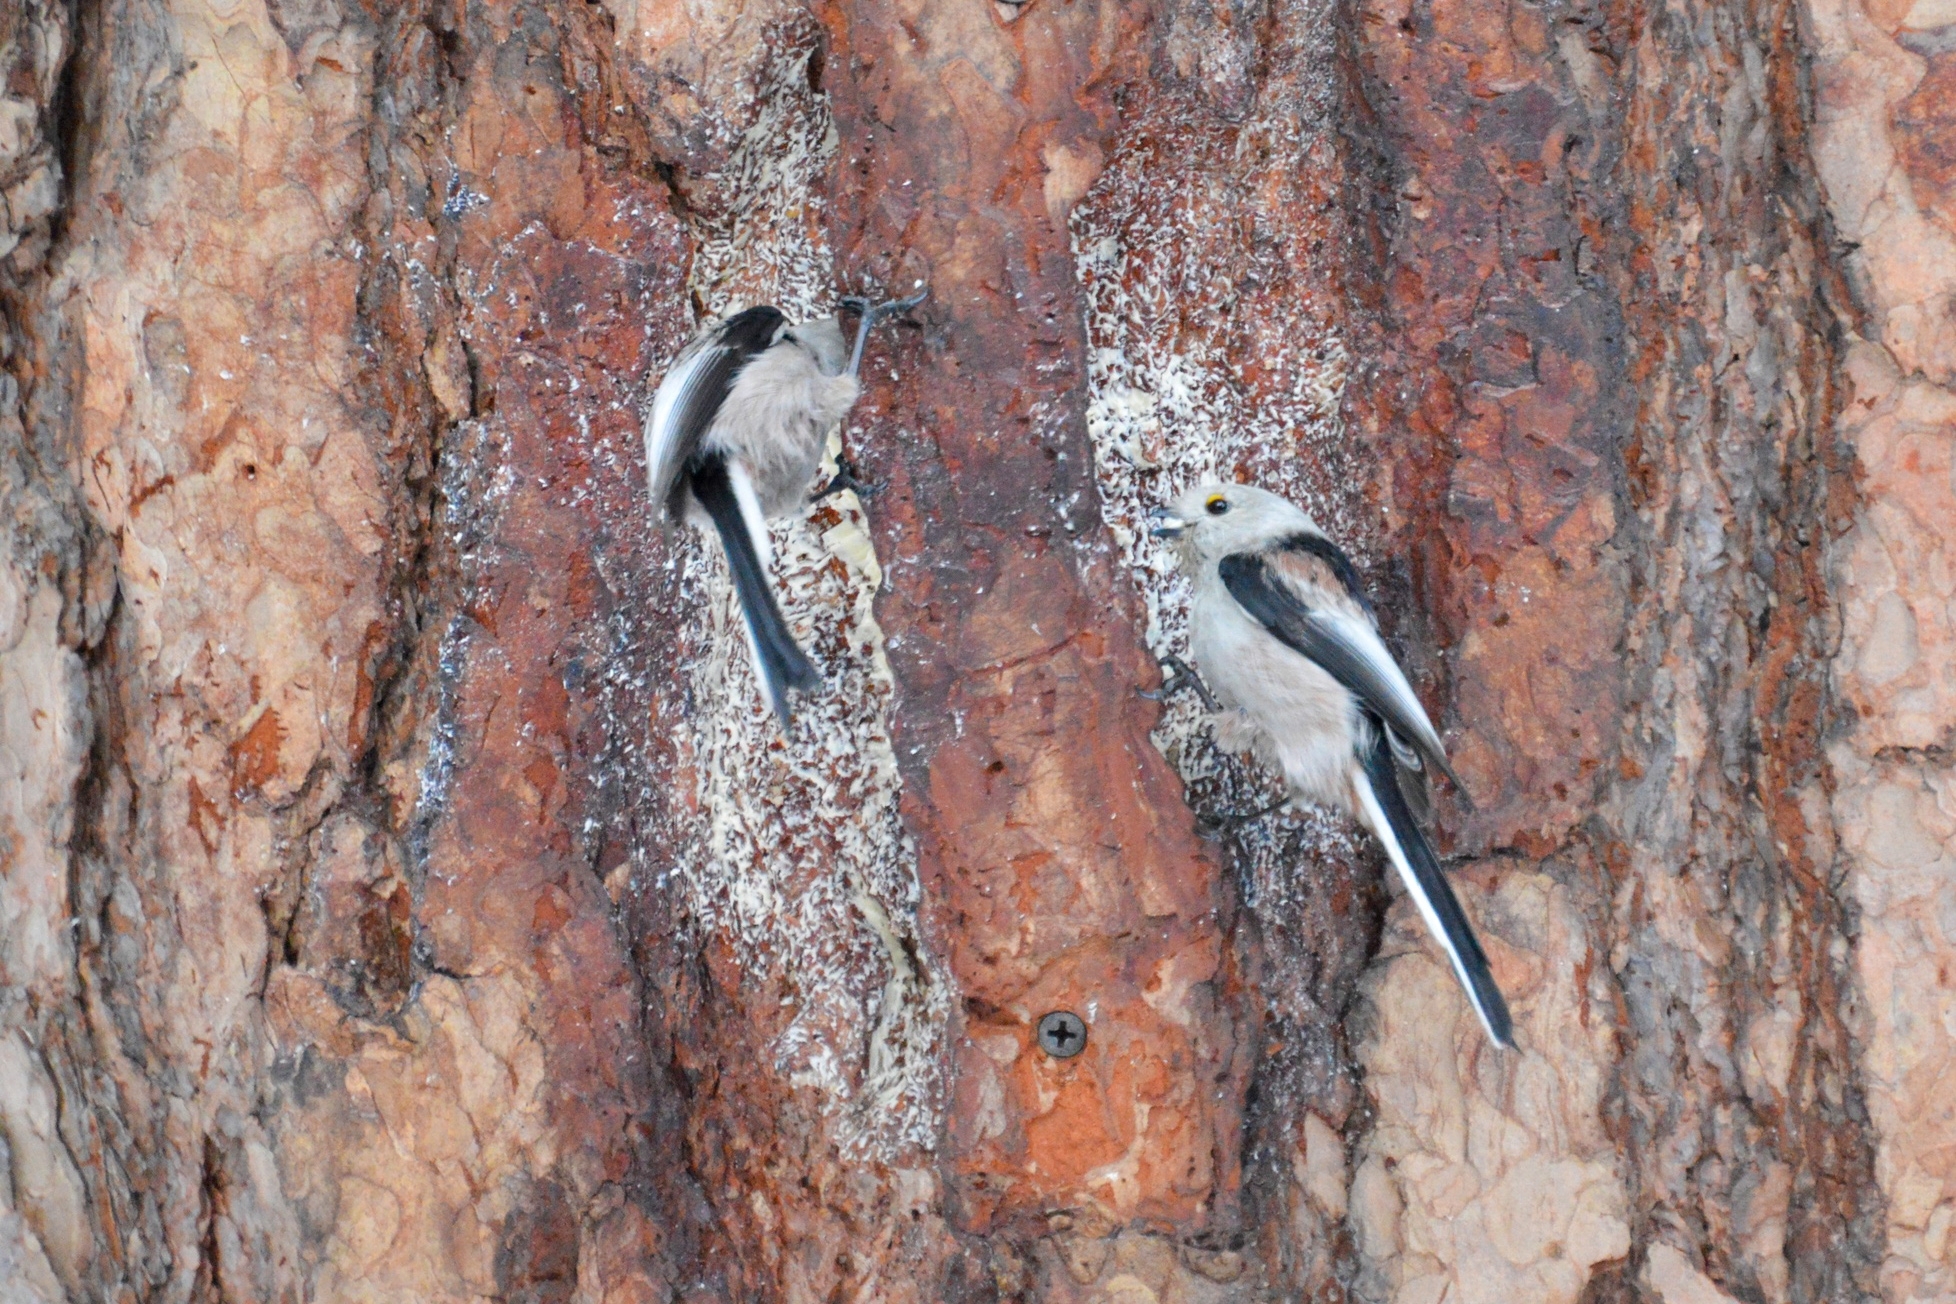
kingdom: Animalia
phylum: Chordata
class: Aves
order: Passeriformes
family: Aegithalidae
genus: Aegithalos
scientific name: Aegithalos caudatus
